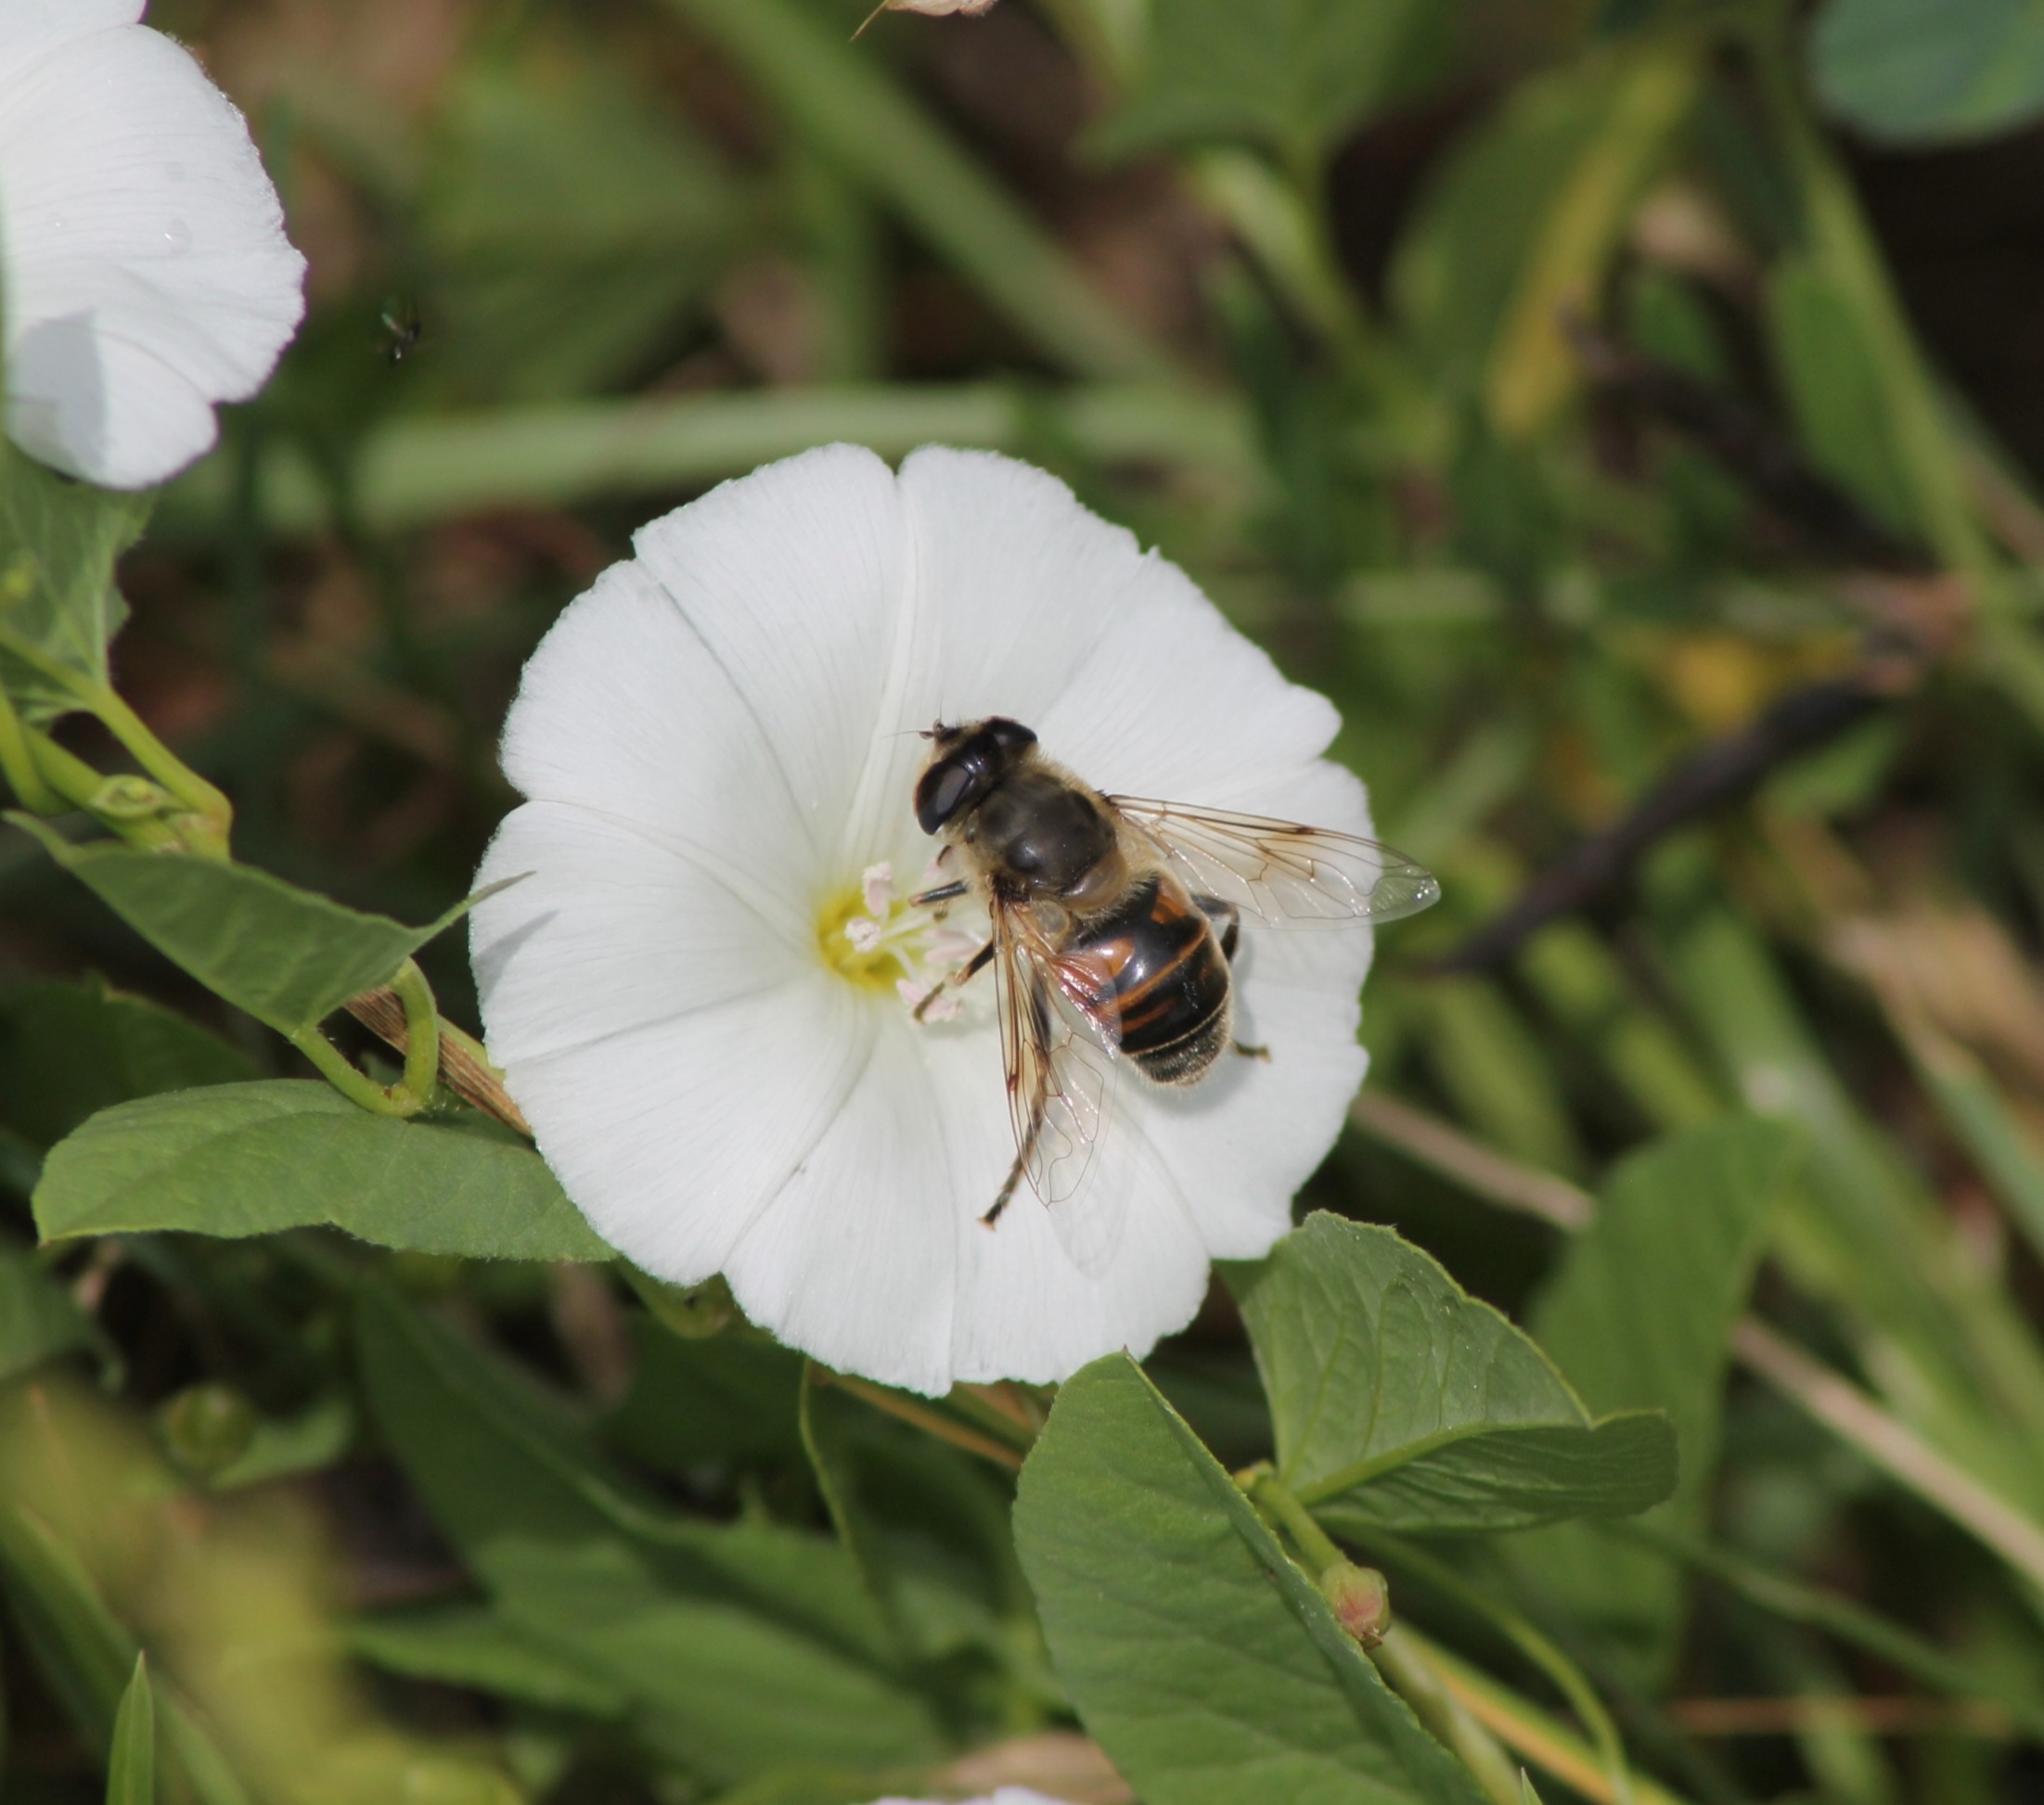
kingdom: Animalia
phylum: Arthropoda
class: Insecta
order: Diptera
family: Syrphidae
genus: Eristalis
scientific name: Eristalis tenax
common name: Drone fly
